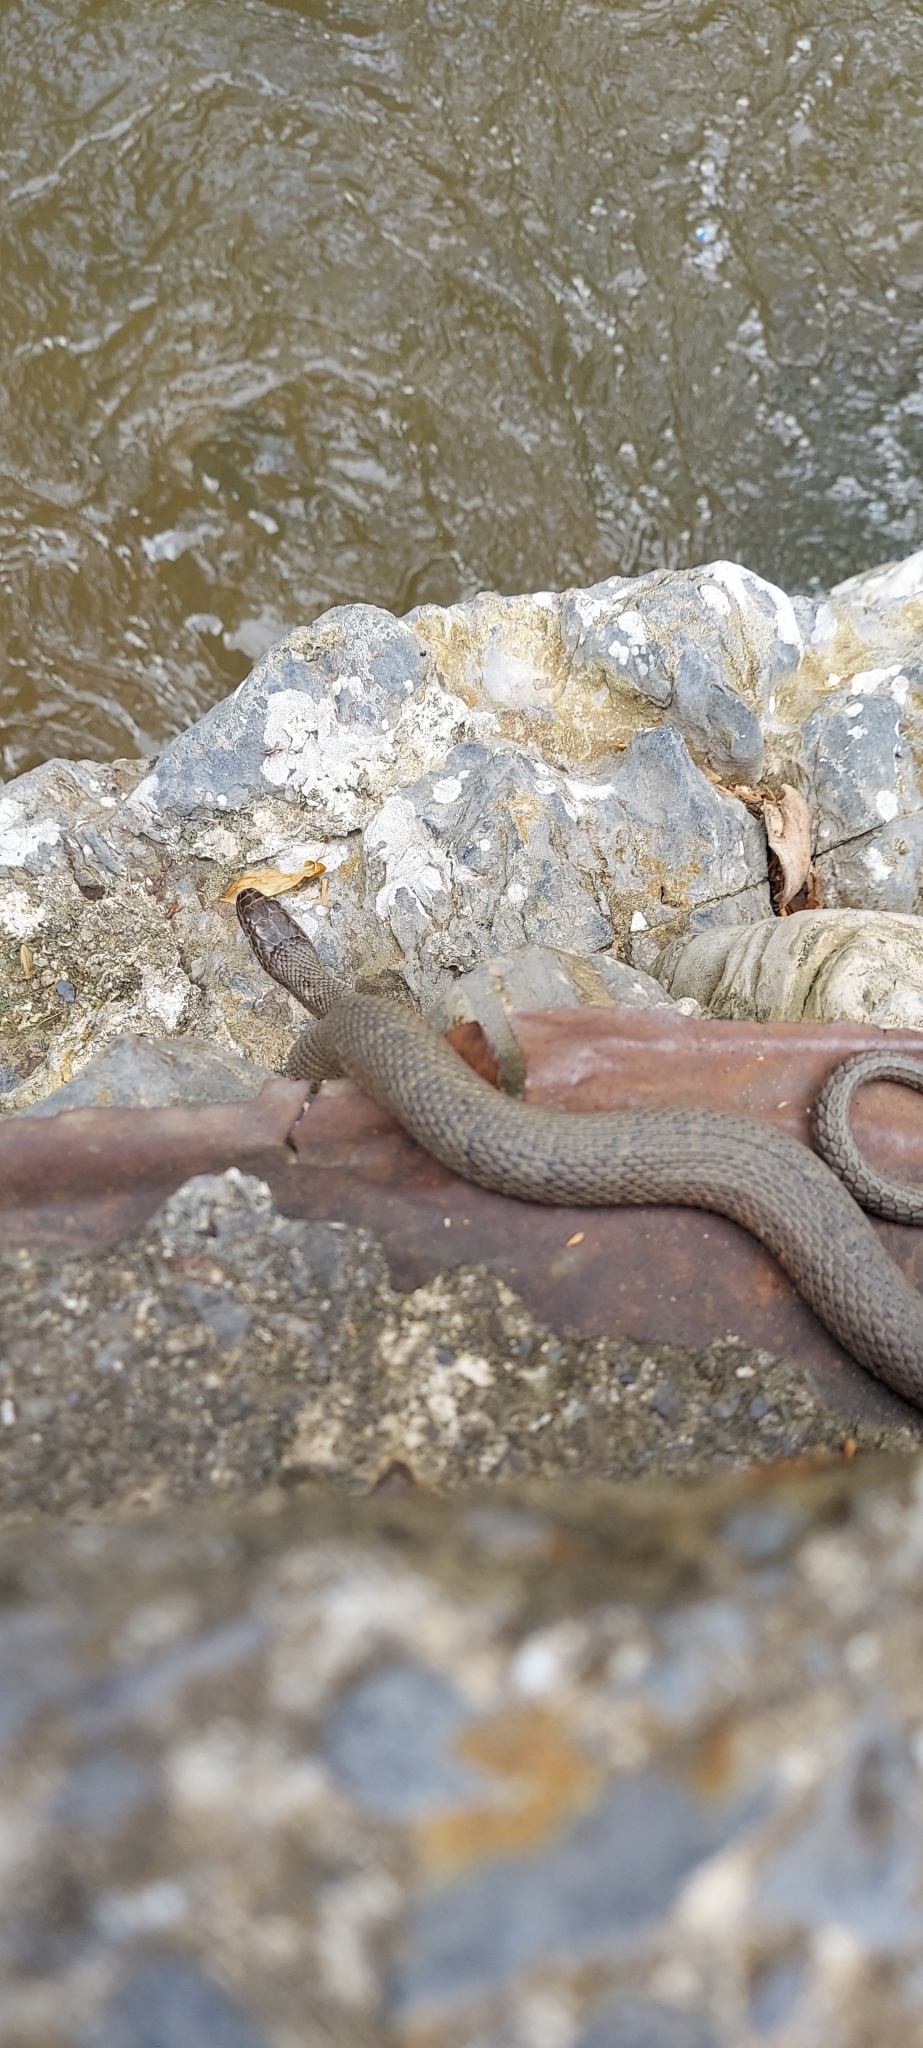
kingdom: Animalia
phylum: Chordata
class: Squamata
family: Colubridae
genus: Nerodia
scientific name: Nerodia sipedon
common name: Northern water snake
